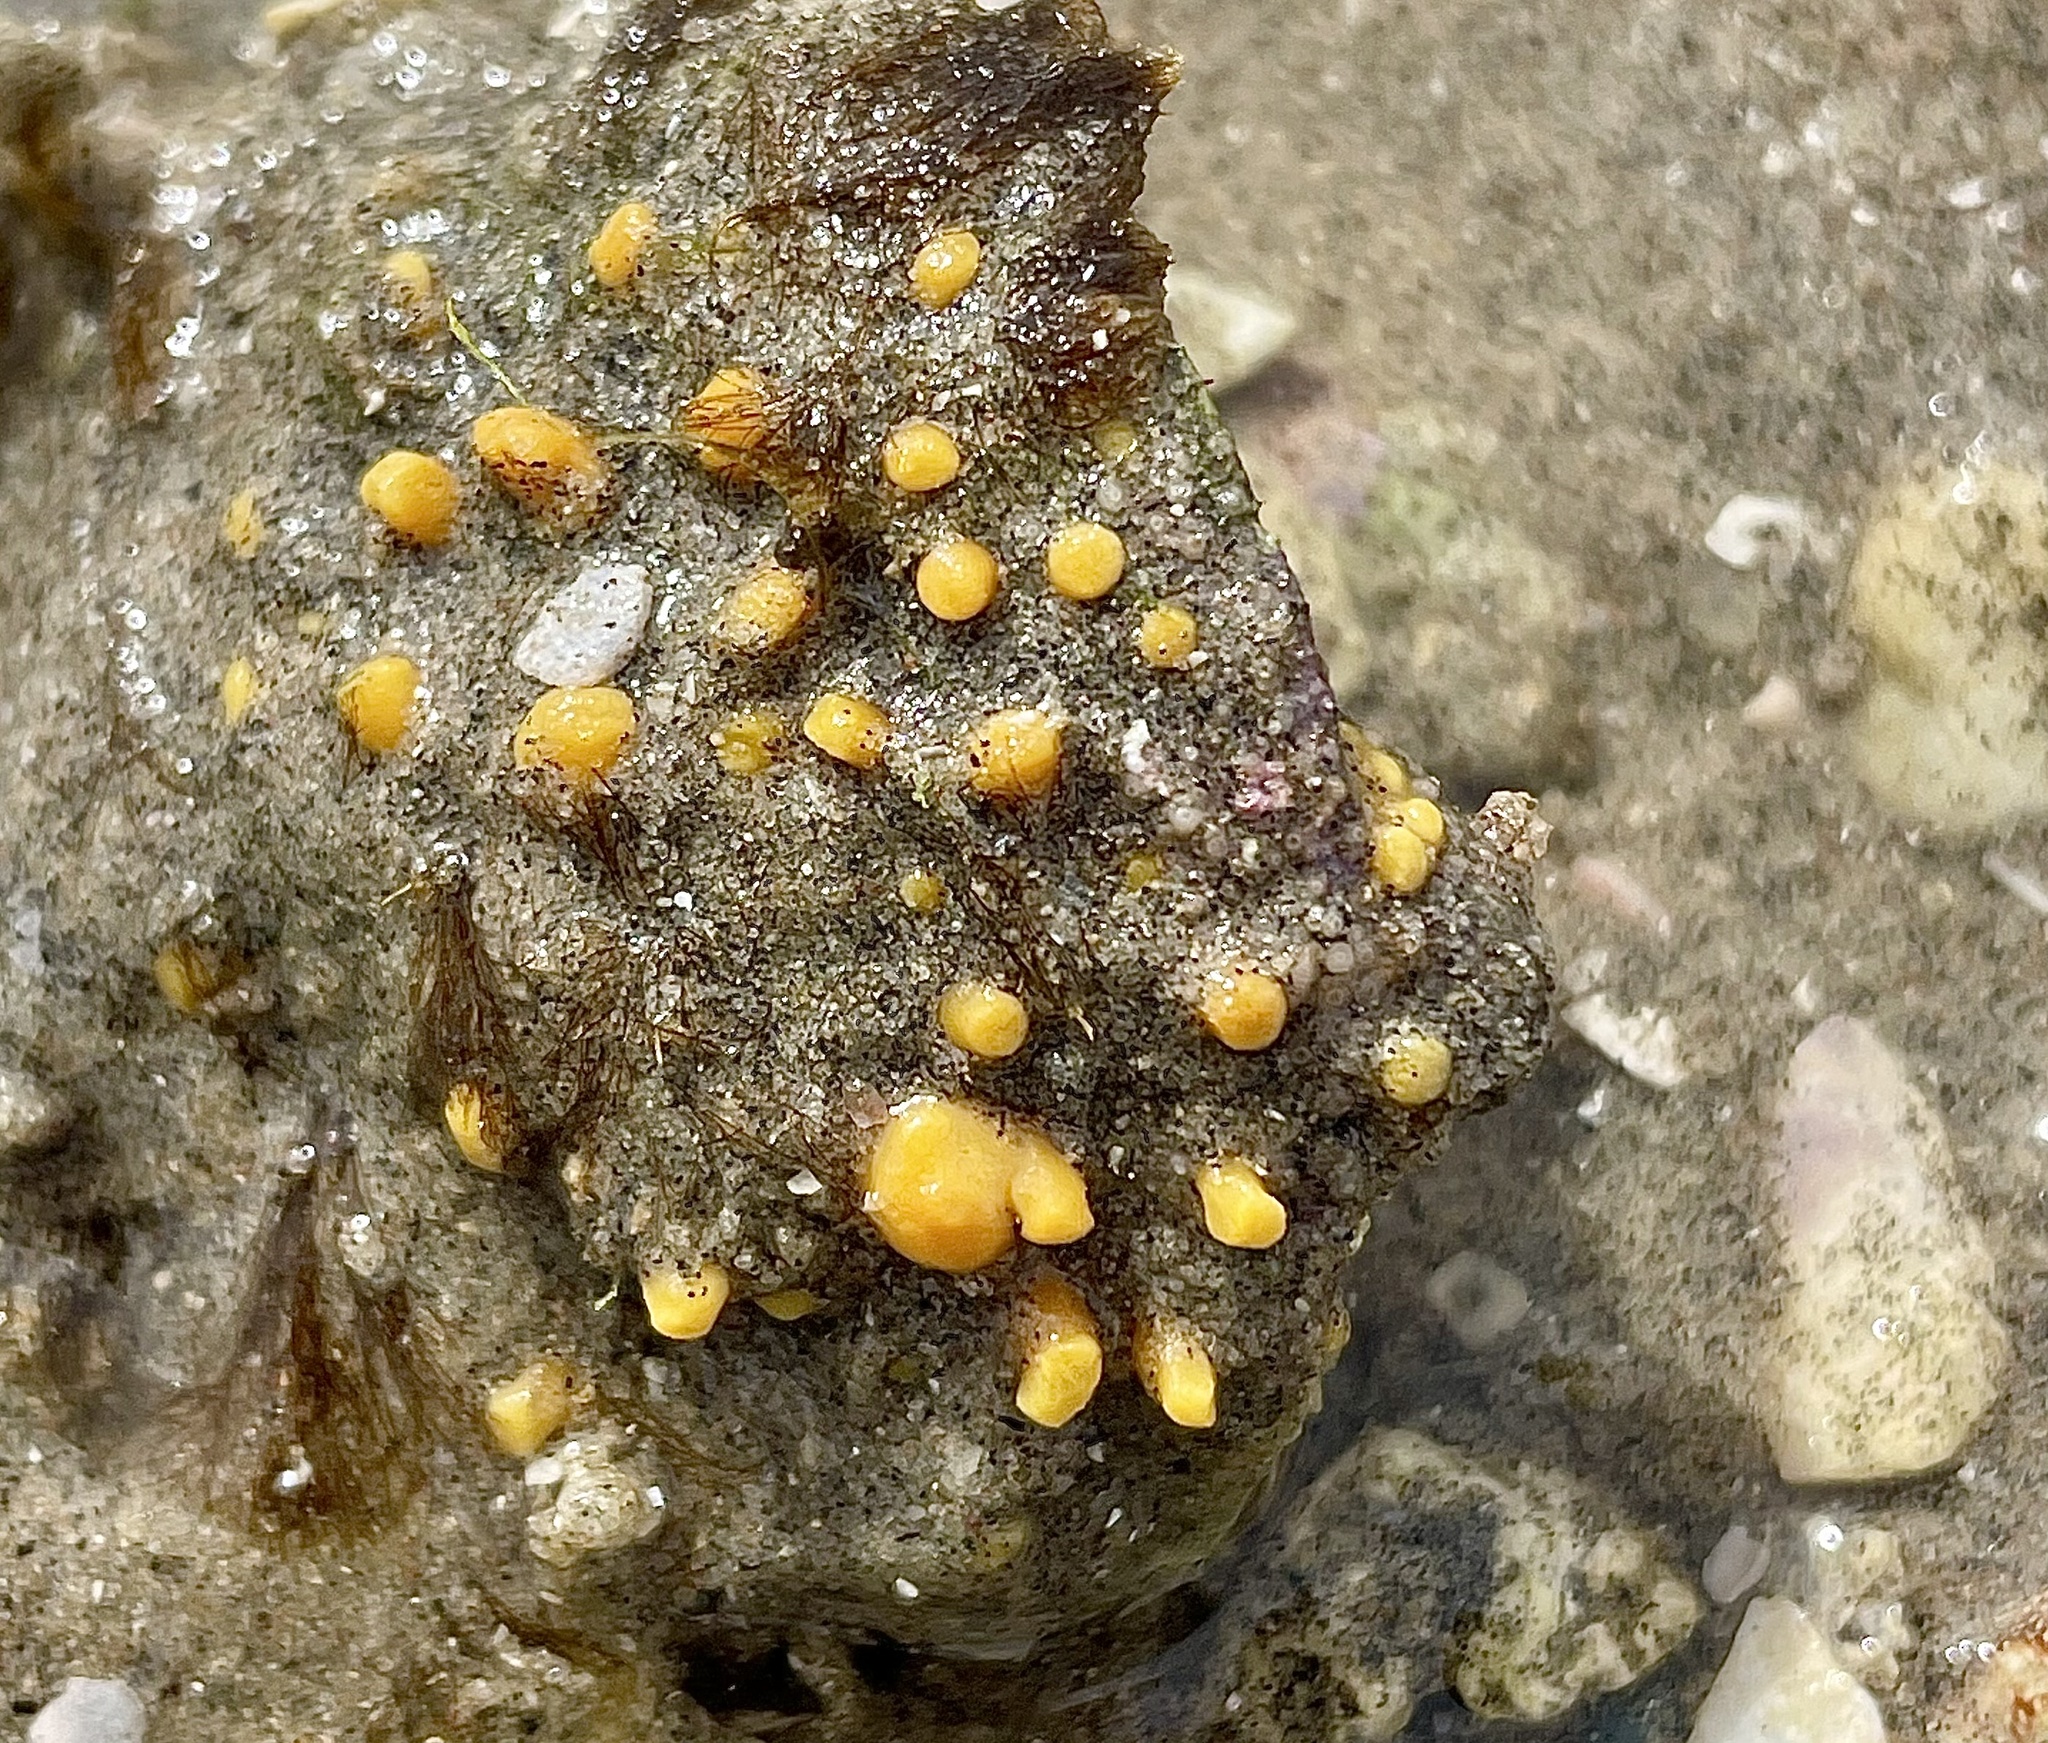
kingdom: Animalia
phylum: Porifera
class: Demospongiae
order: Clionaida
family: Clionaidae
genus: Cliona
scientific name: Cliona californiana
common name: California boring horny sponge
